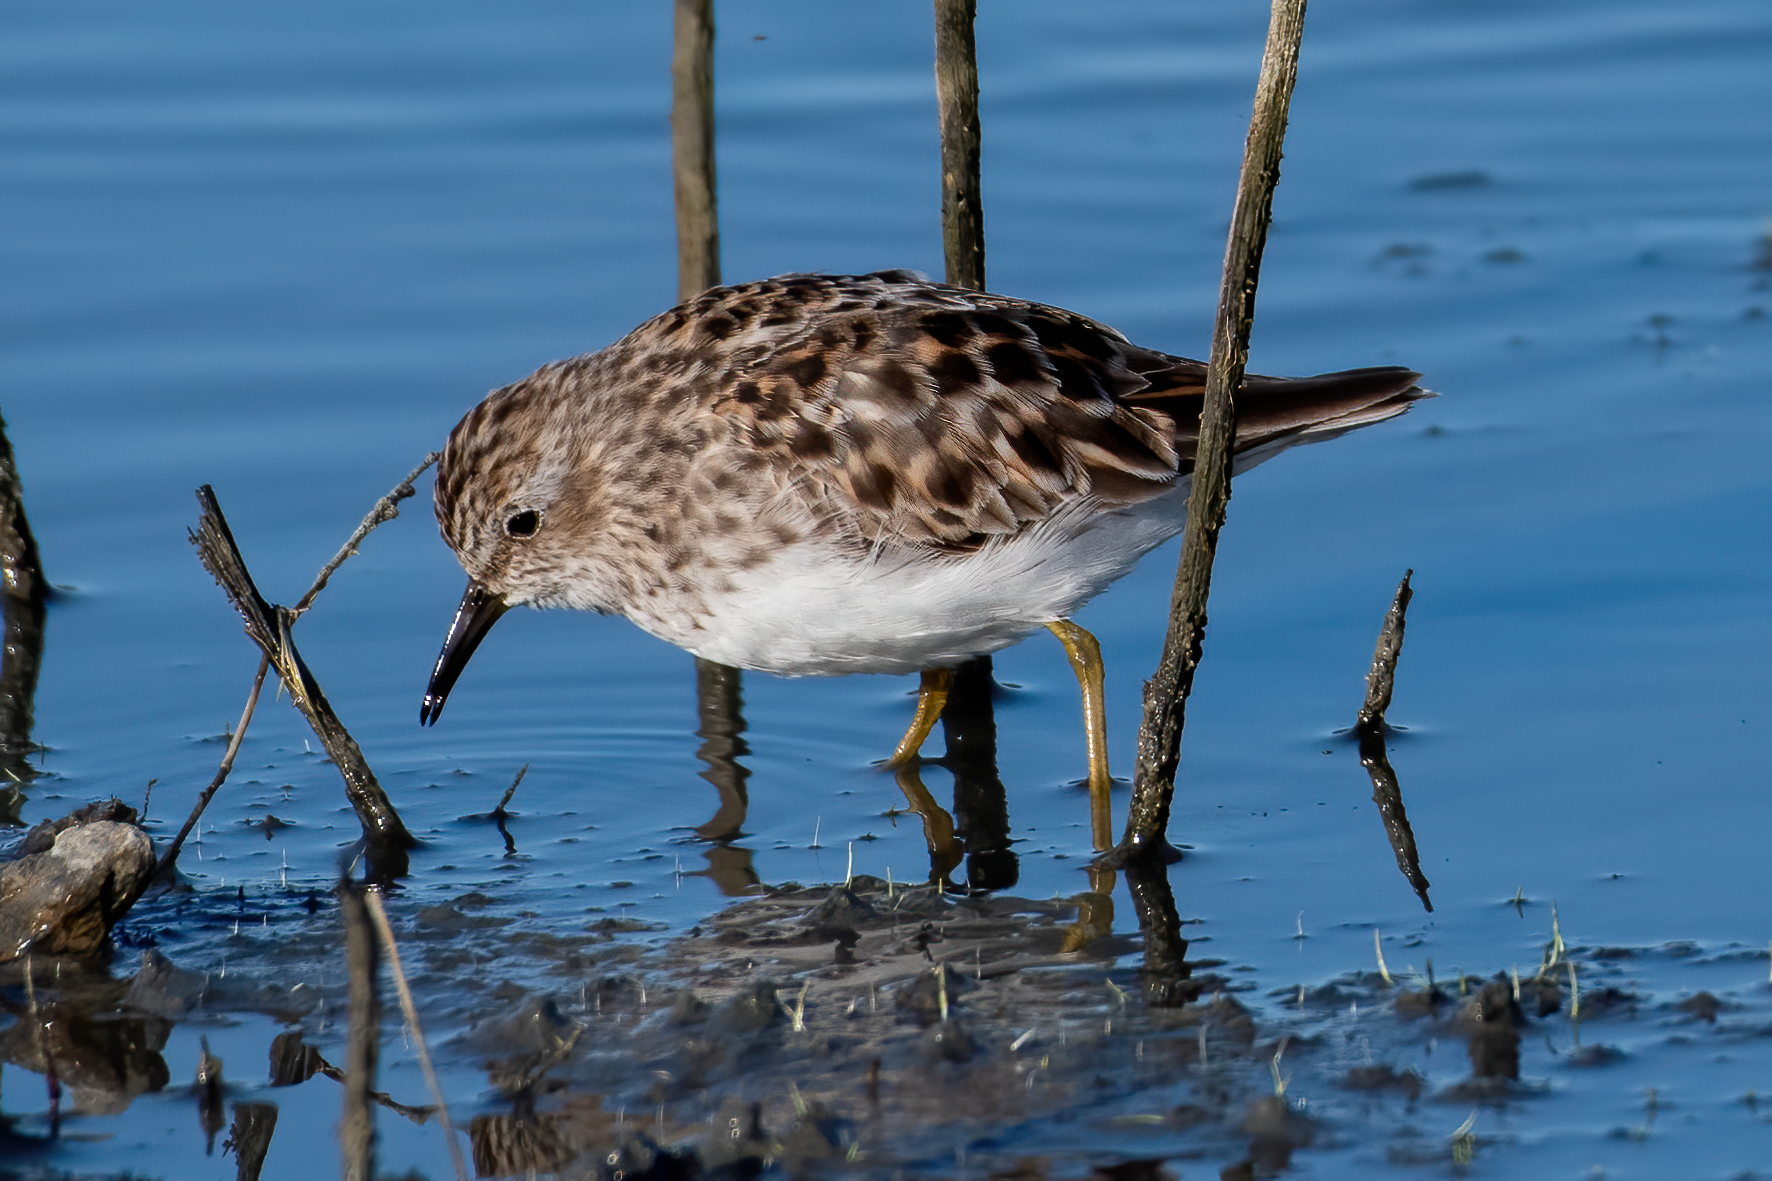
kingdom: Animalia
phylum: Chordata
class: Aves
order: Charadriiformes
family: Scolopacidae
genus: Calidris
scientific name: Calidris minutilla
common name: Least sandpiper
